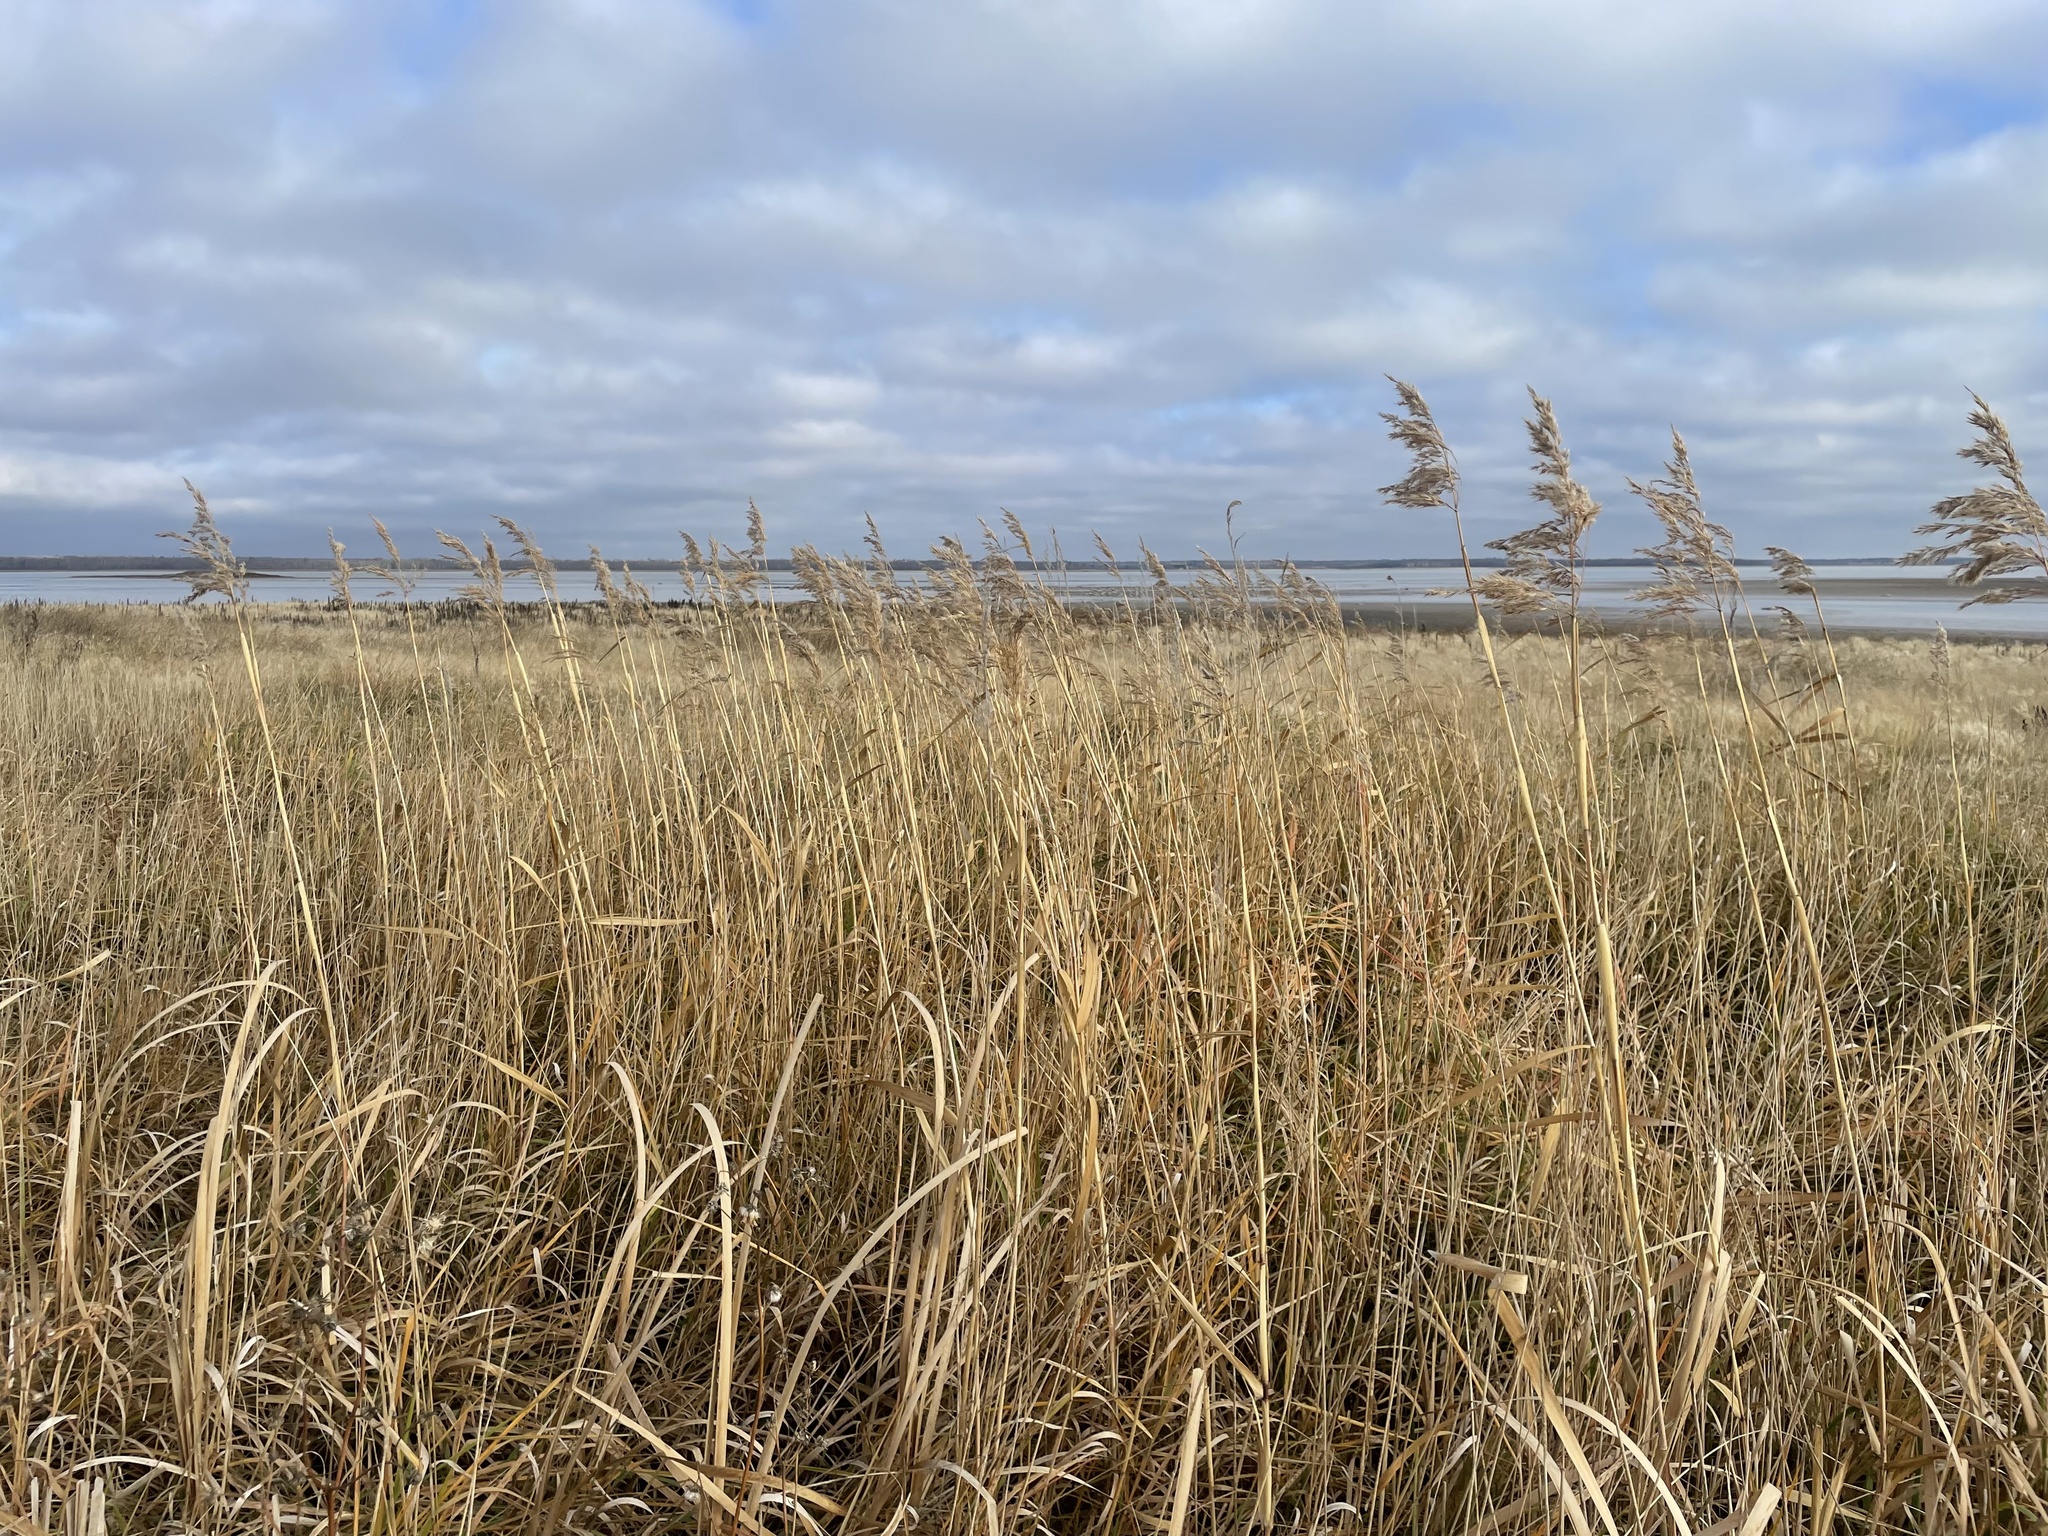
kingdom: Plantae
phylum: Tracheophyta
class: Liliopsida
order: Poales
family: Poaceae
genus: Phragmites
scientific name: Phragmites australis
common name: Common reed
